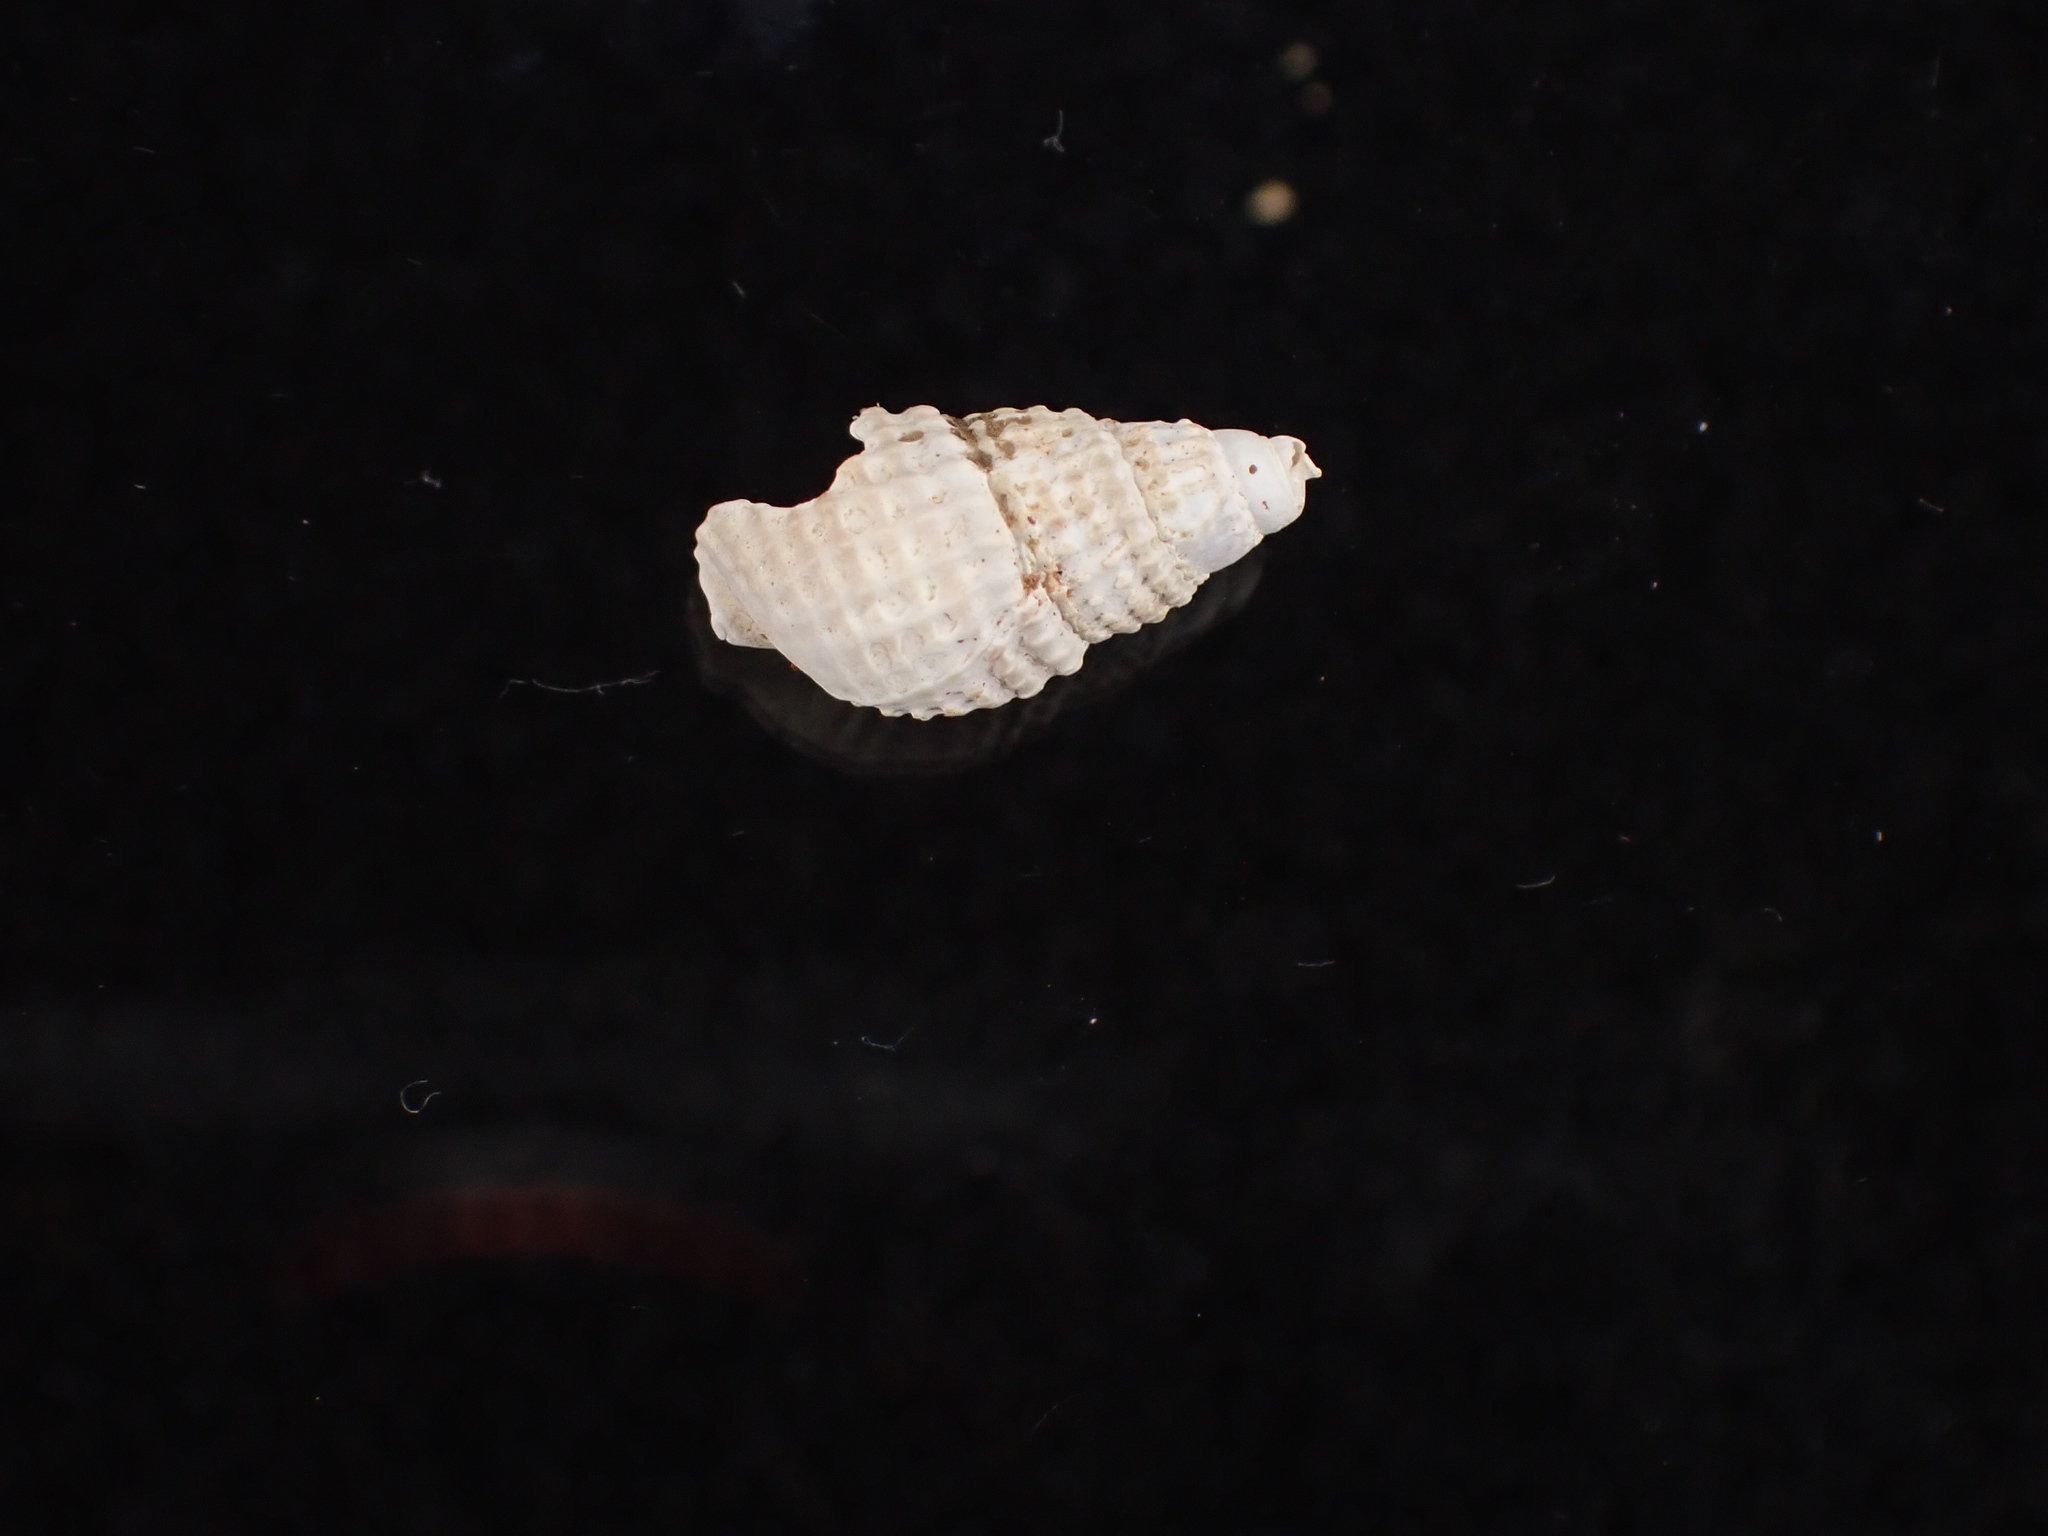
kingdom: Animalia
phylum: Mollusca
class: Gastropoda
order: Neogastropoda
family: Nassariidae
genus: Ilyanassa
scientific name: Ilyanassa trivittata
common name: Three-line mudsnail
